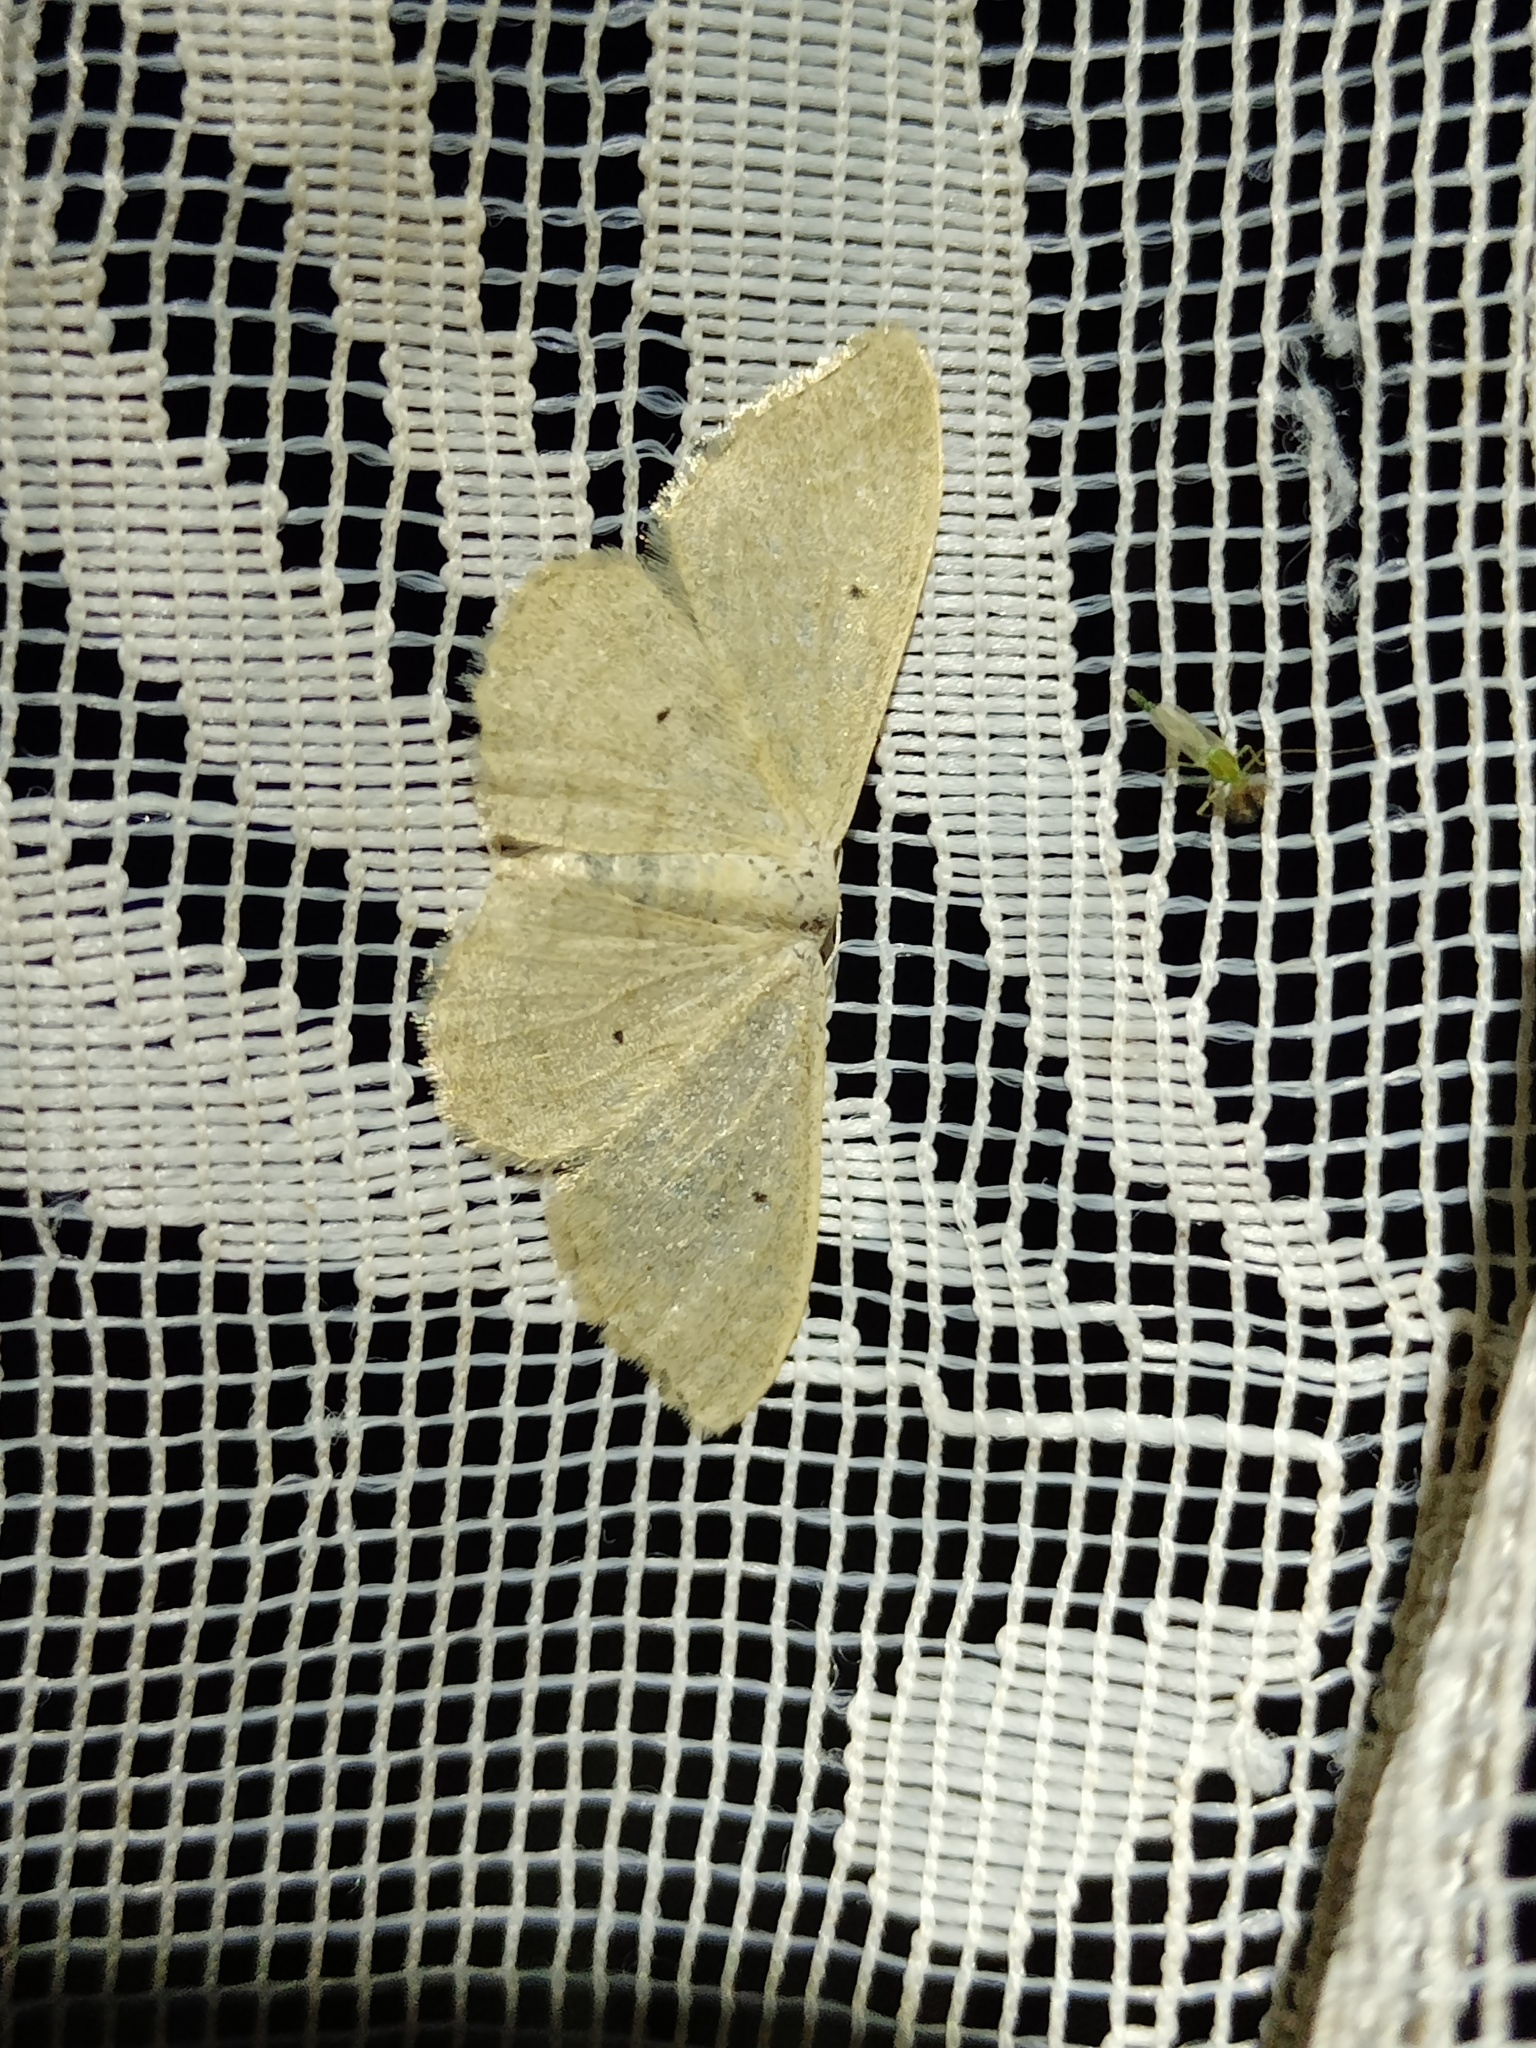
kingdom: Animalia
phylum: Arthropoda
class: Insecta
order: Lepidoptera
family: Geometridae
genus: Idaea
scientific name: Idaea straminata
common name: Plain wave
